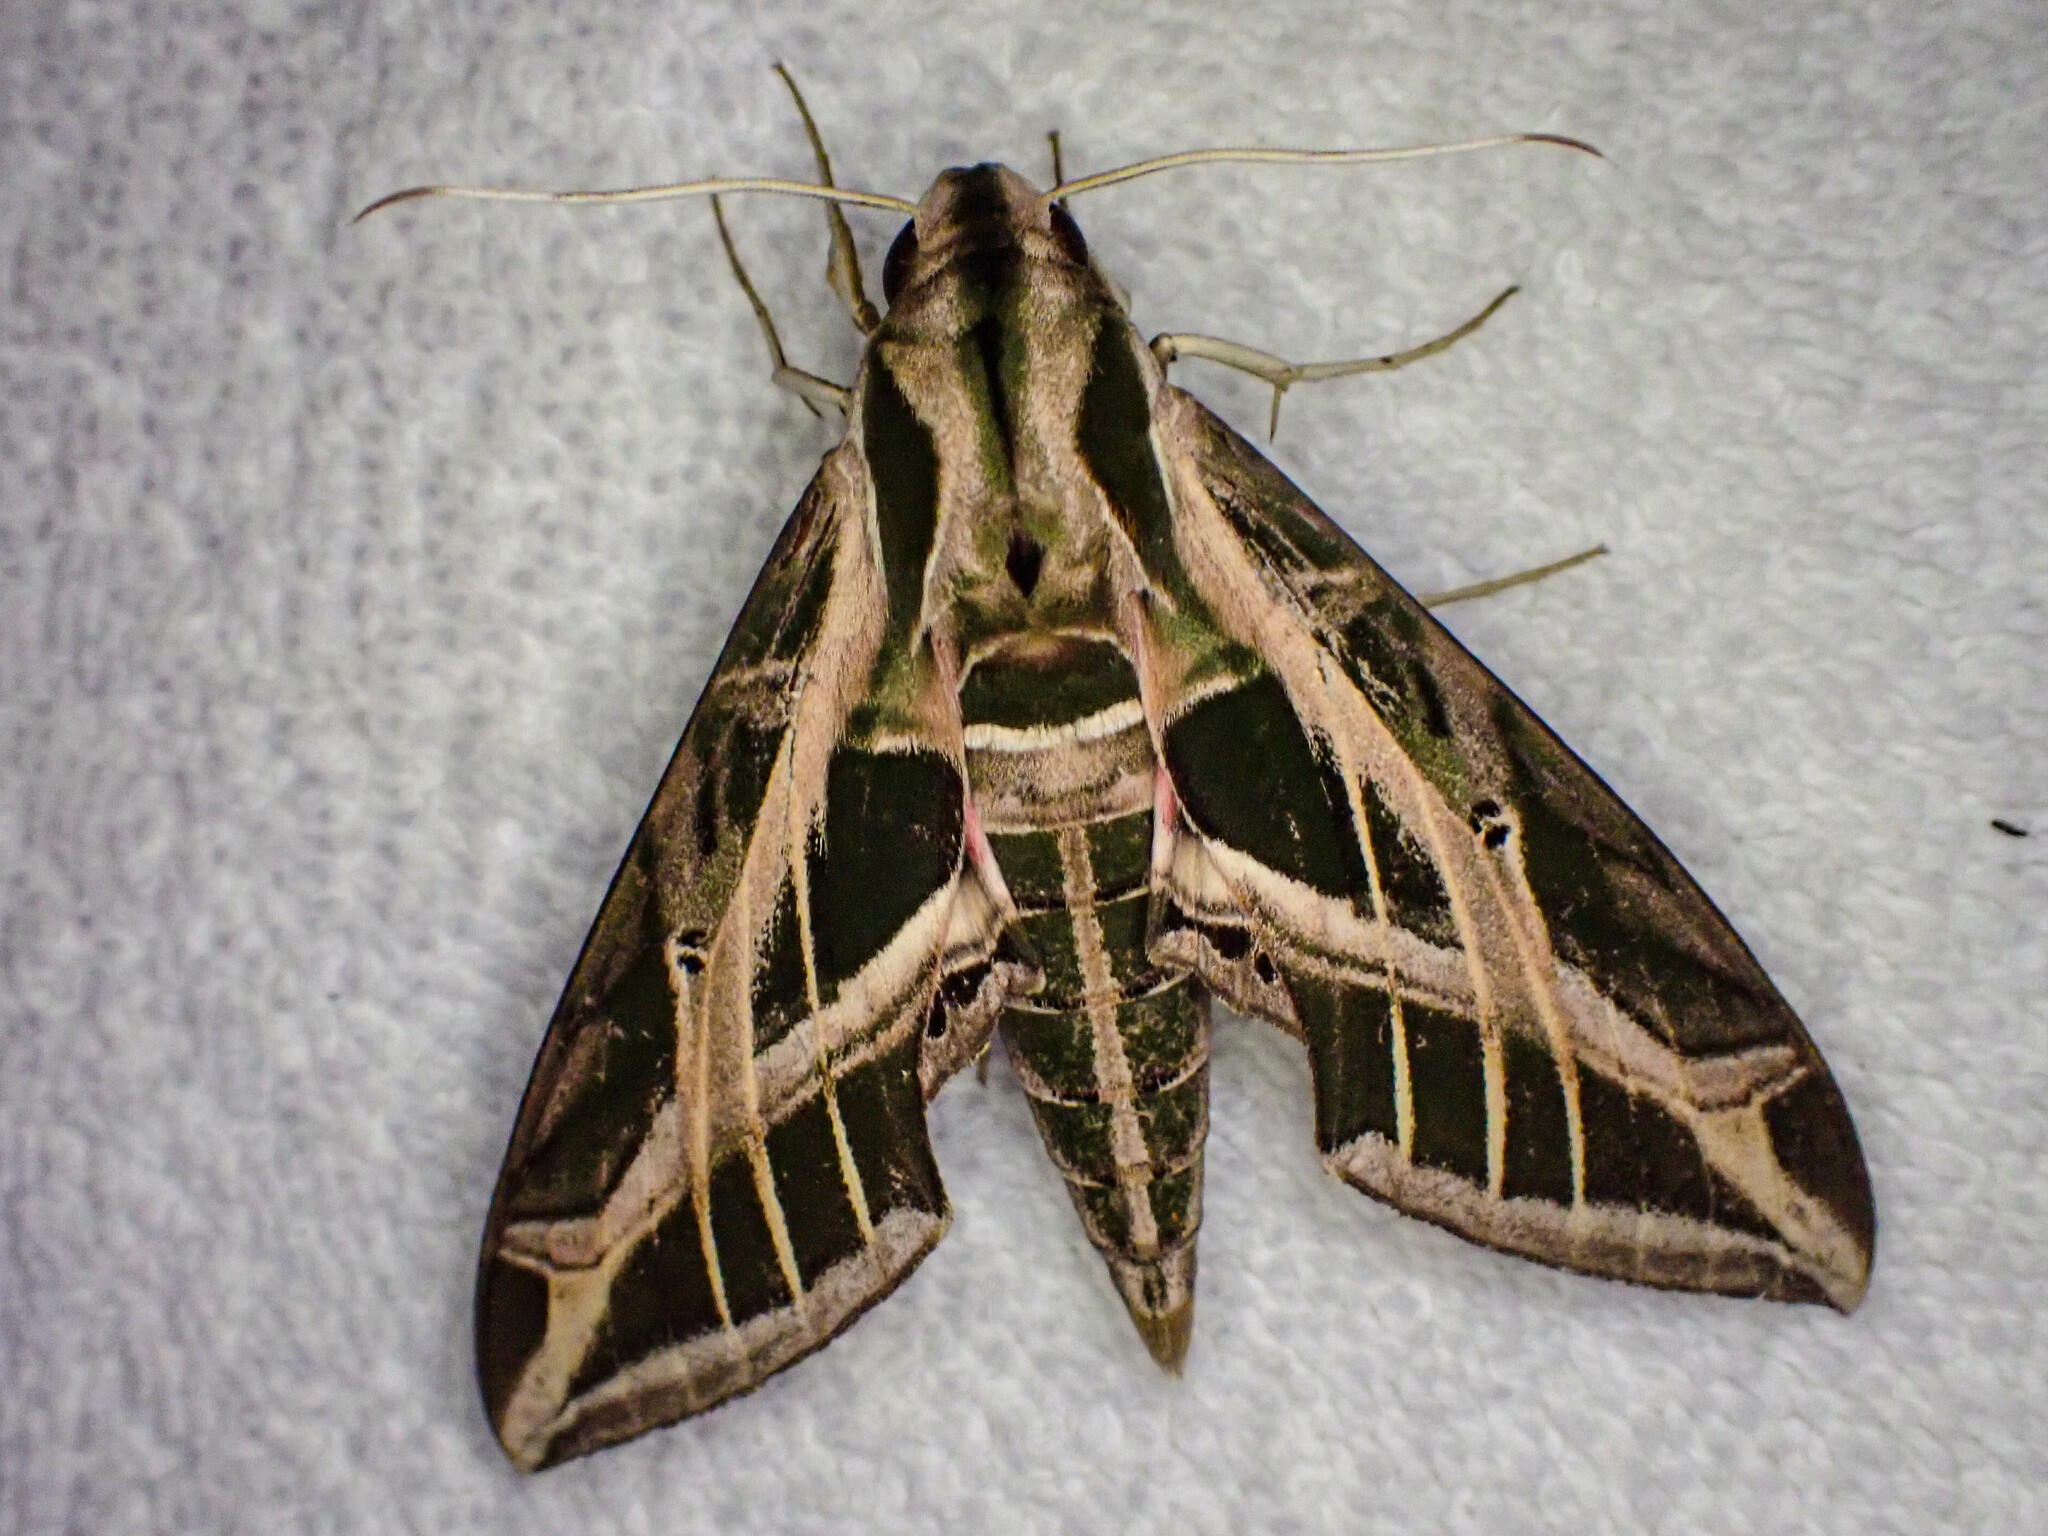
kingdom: Animalia
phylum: Arthropoda
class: Insecta
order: Lepidoptera
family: Sphingidae
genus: Eumorpha
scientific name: Eumorpha vitis
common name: Vine sphinx
